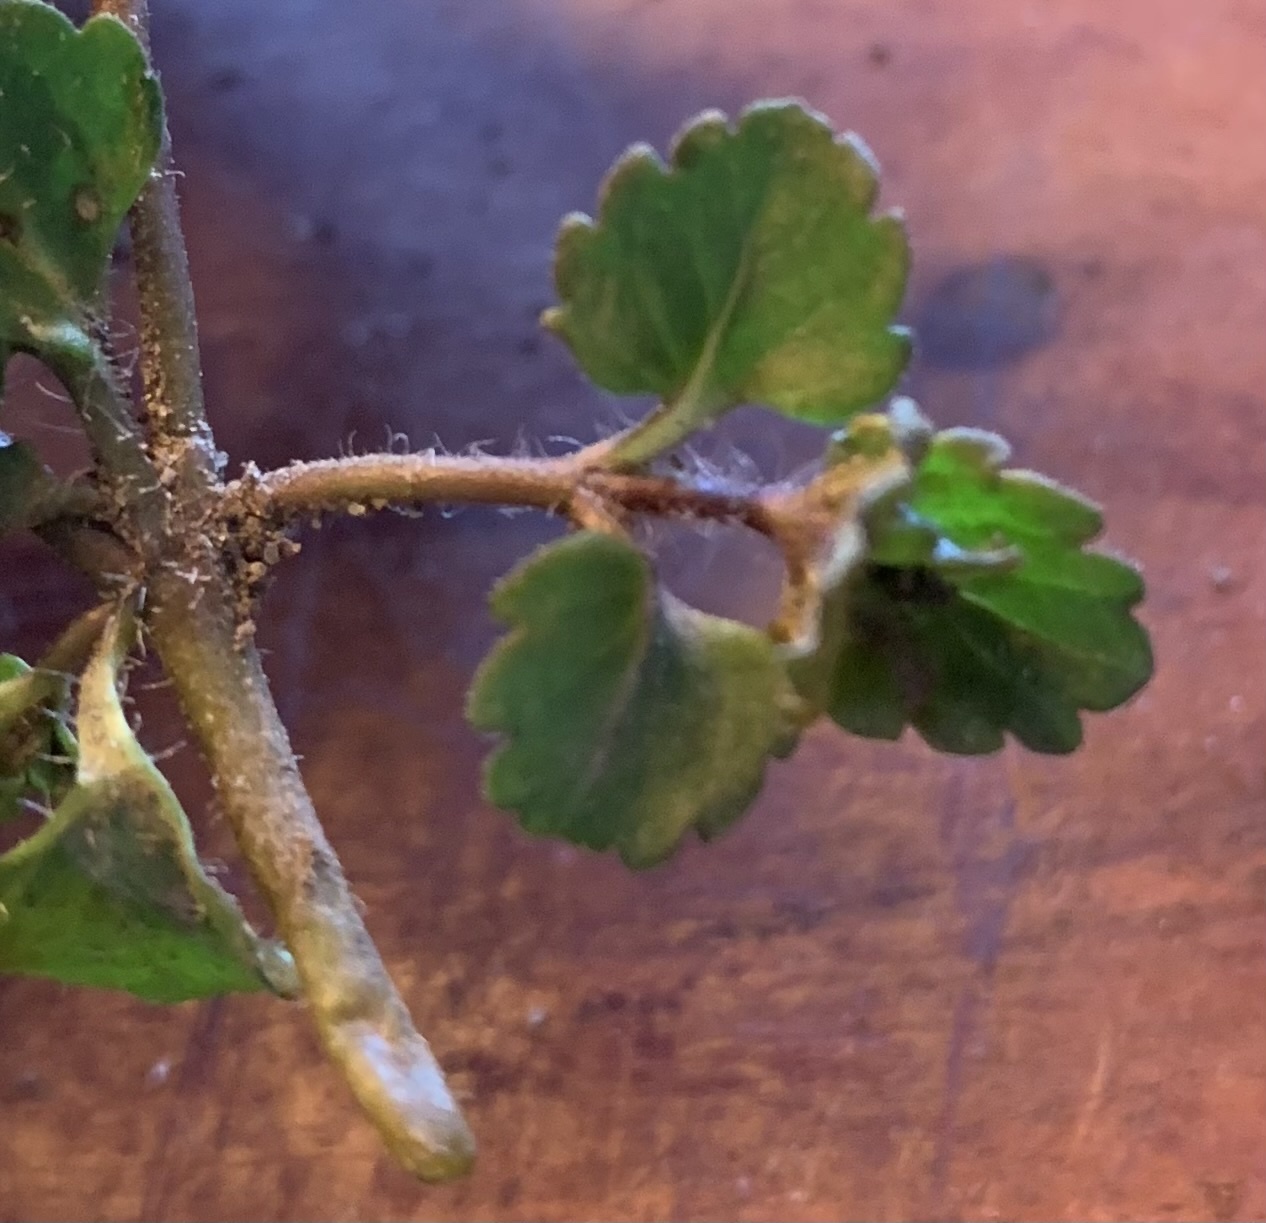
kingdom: Plantae
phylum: Tracheophyta
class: Magnoliopsida
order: Lamiales
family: Plantaginaceae
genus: Veronica
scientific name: Veronica persica
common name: Common field-speedwell
